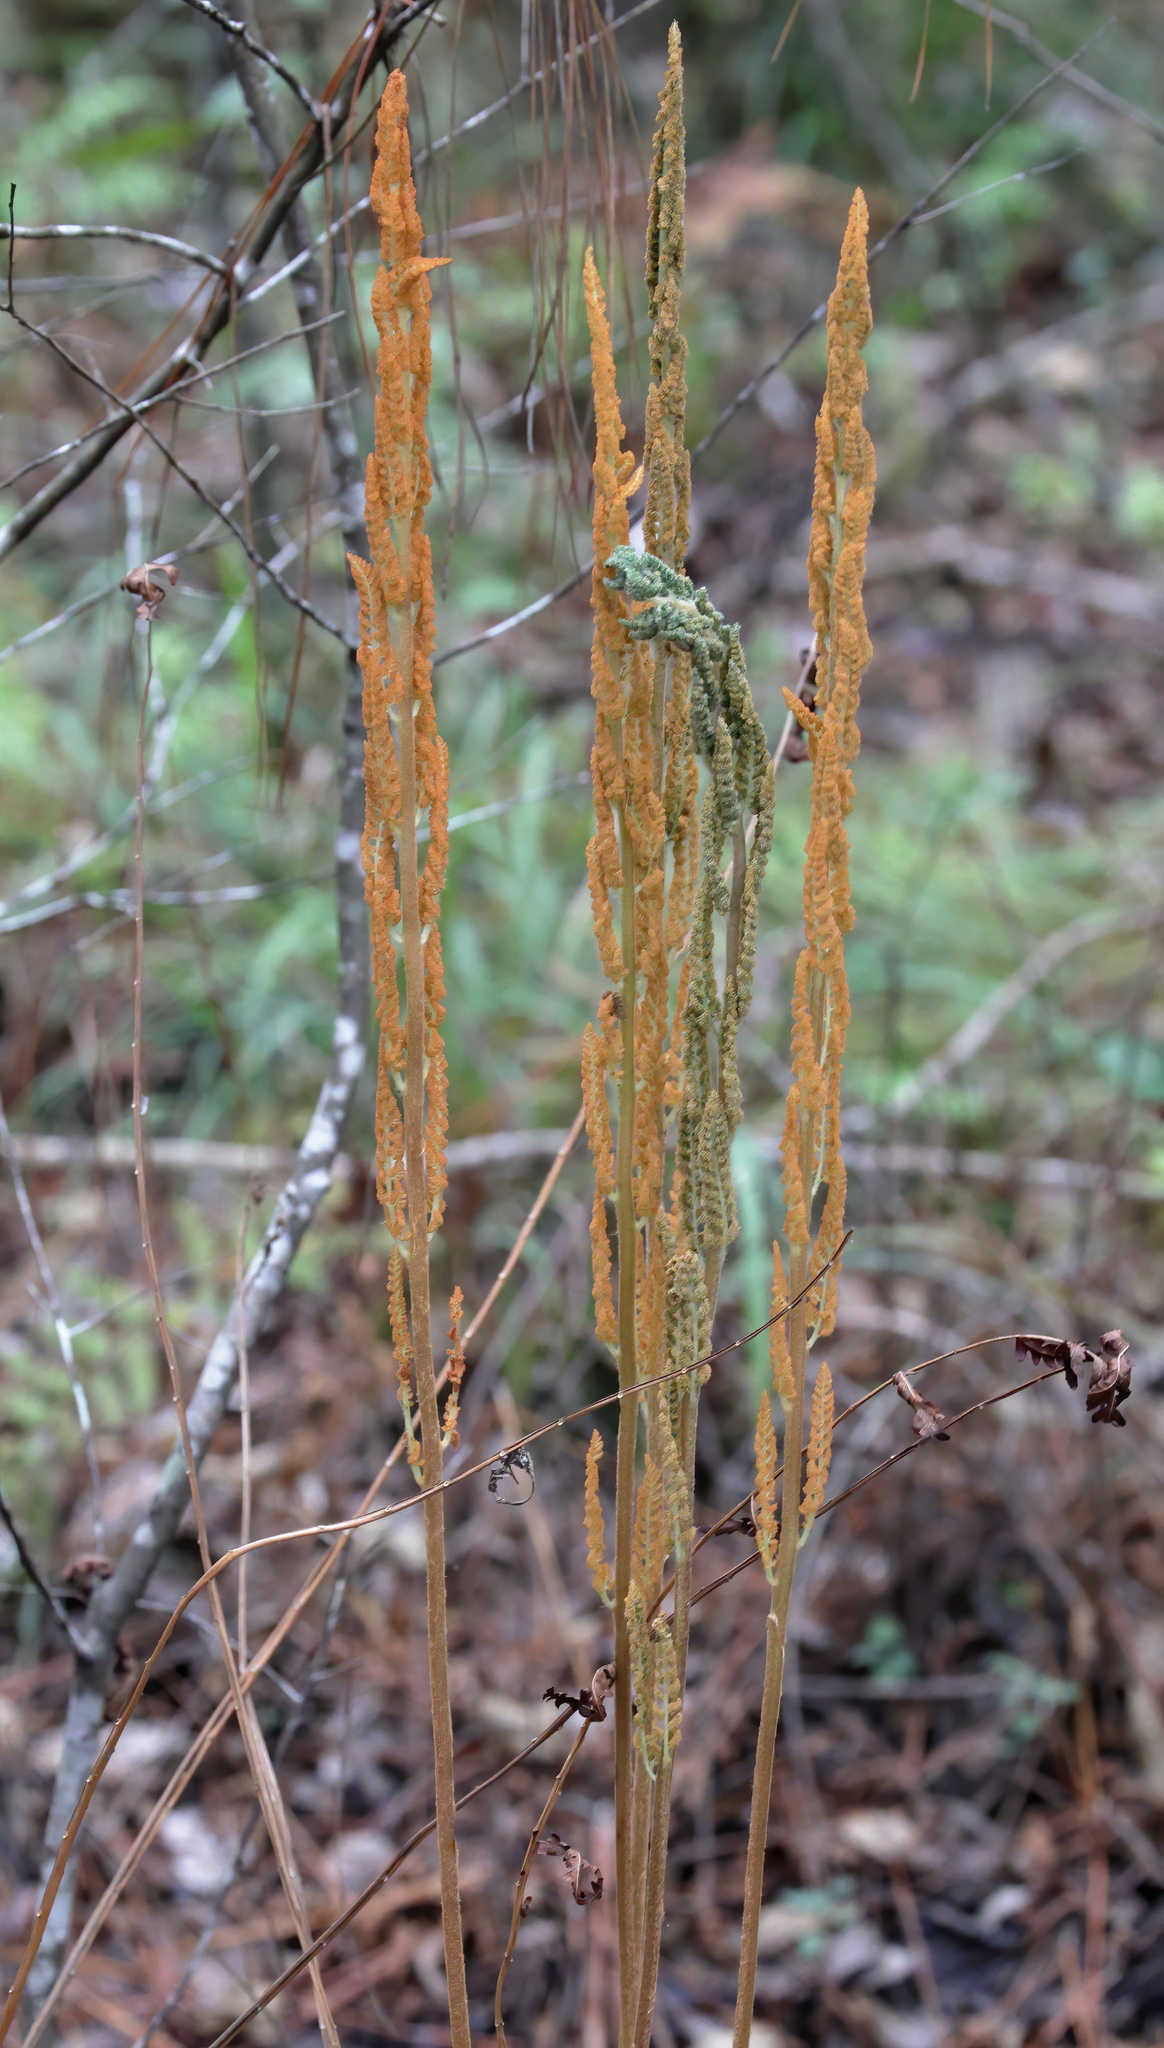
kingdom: Plantae
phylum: Tracheophyta
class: Polypodiopsida
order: Osmundales
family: Osmundaceae
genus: Osmundastrum
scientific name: Osmundastrum cinnamomeum
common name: Cinnamon fern
